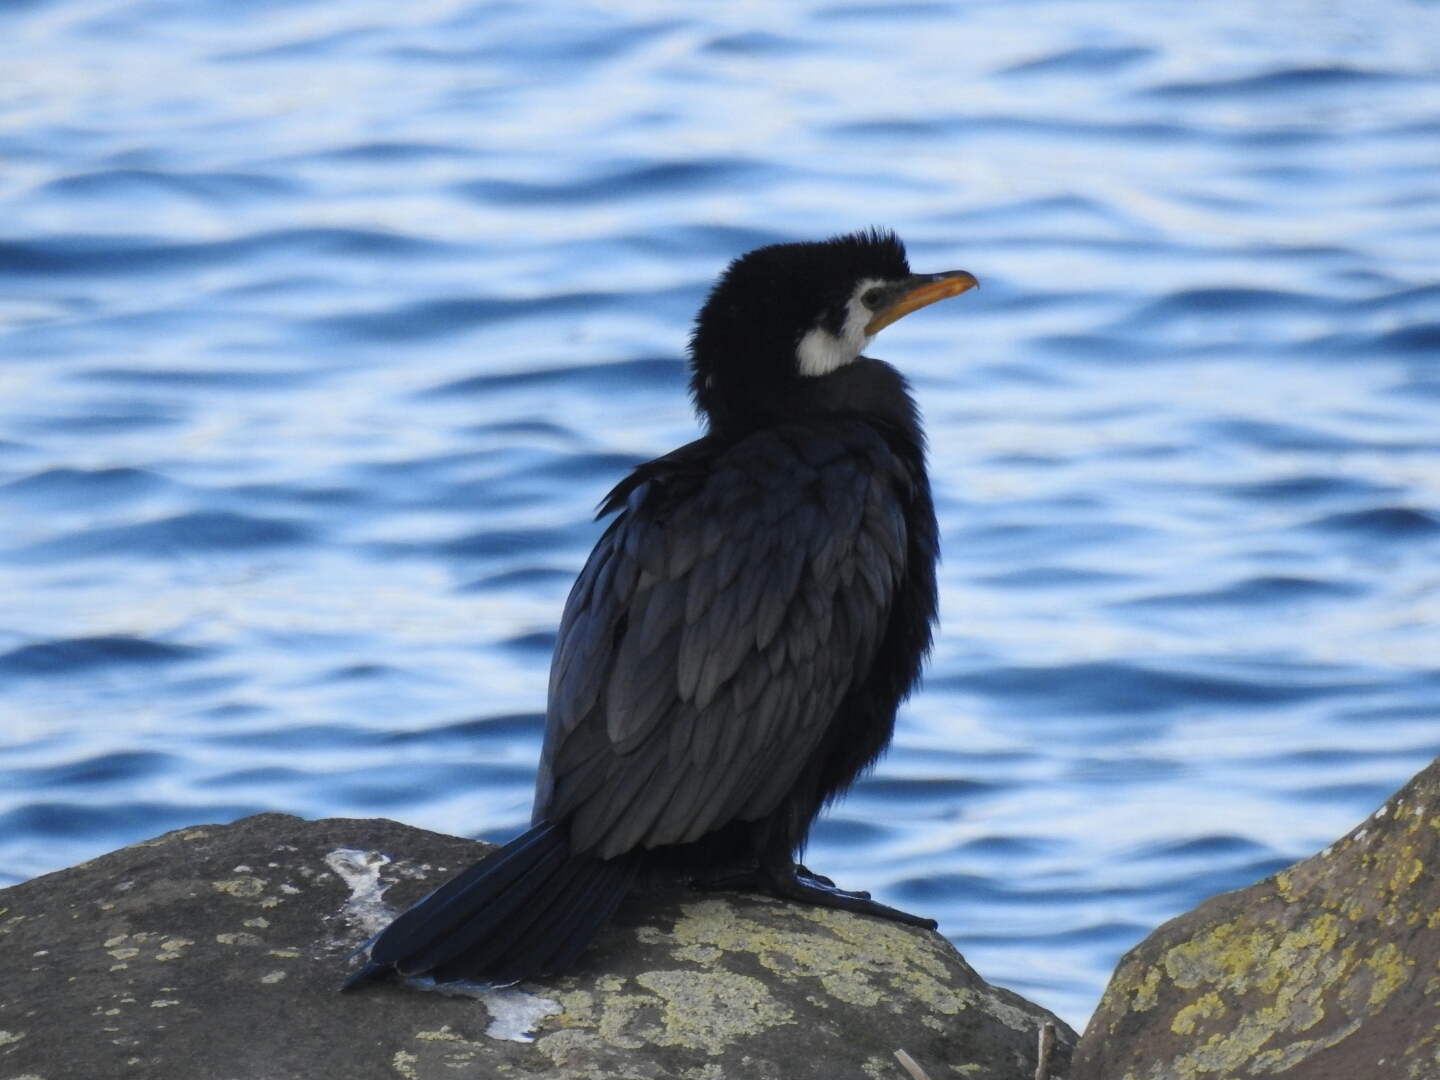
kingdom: Animalia
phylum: Chordata
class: Aves
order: Suliformes
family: Phalacrocoracidae
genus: Microcarbo
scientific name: Microcarbo melanoleucos
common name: Little pied cormorant
